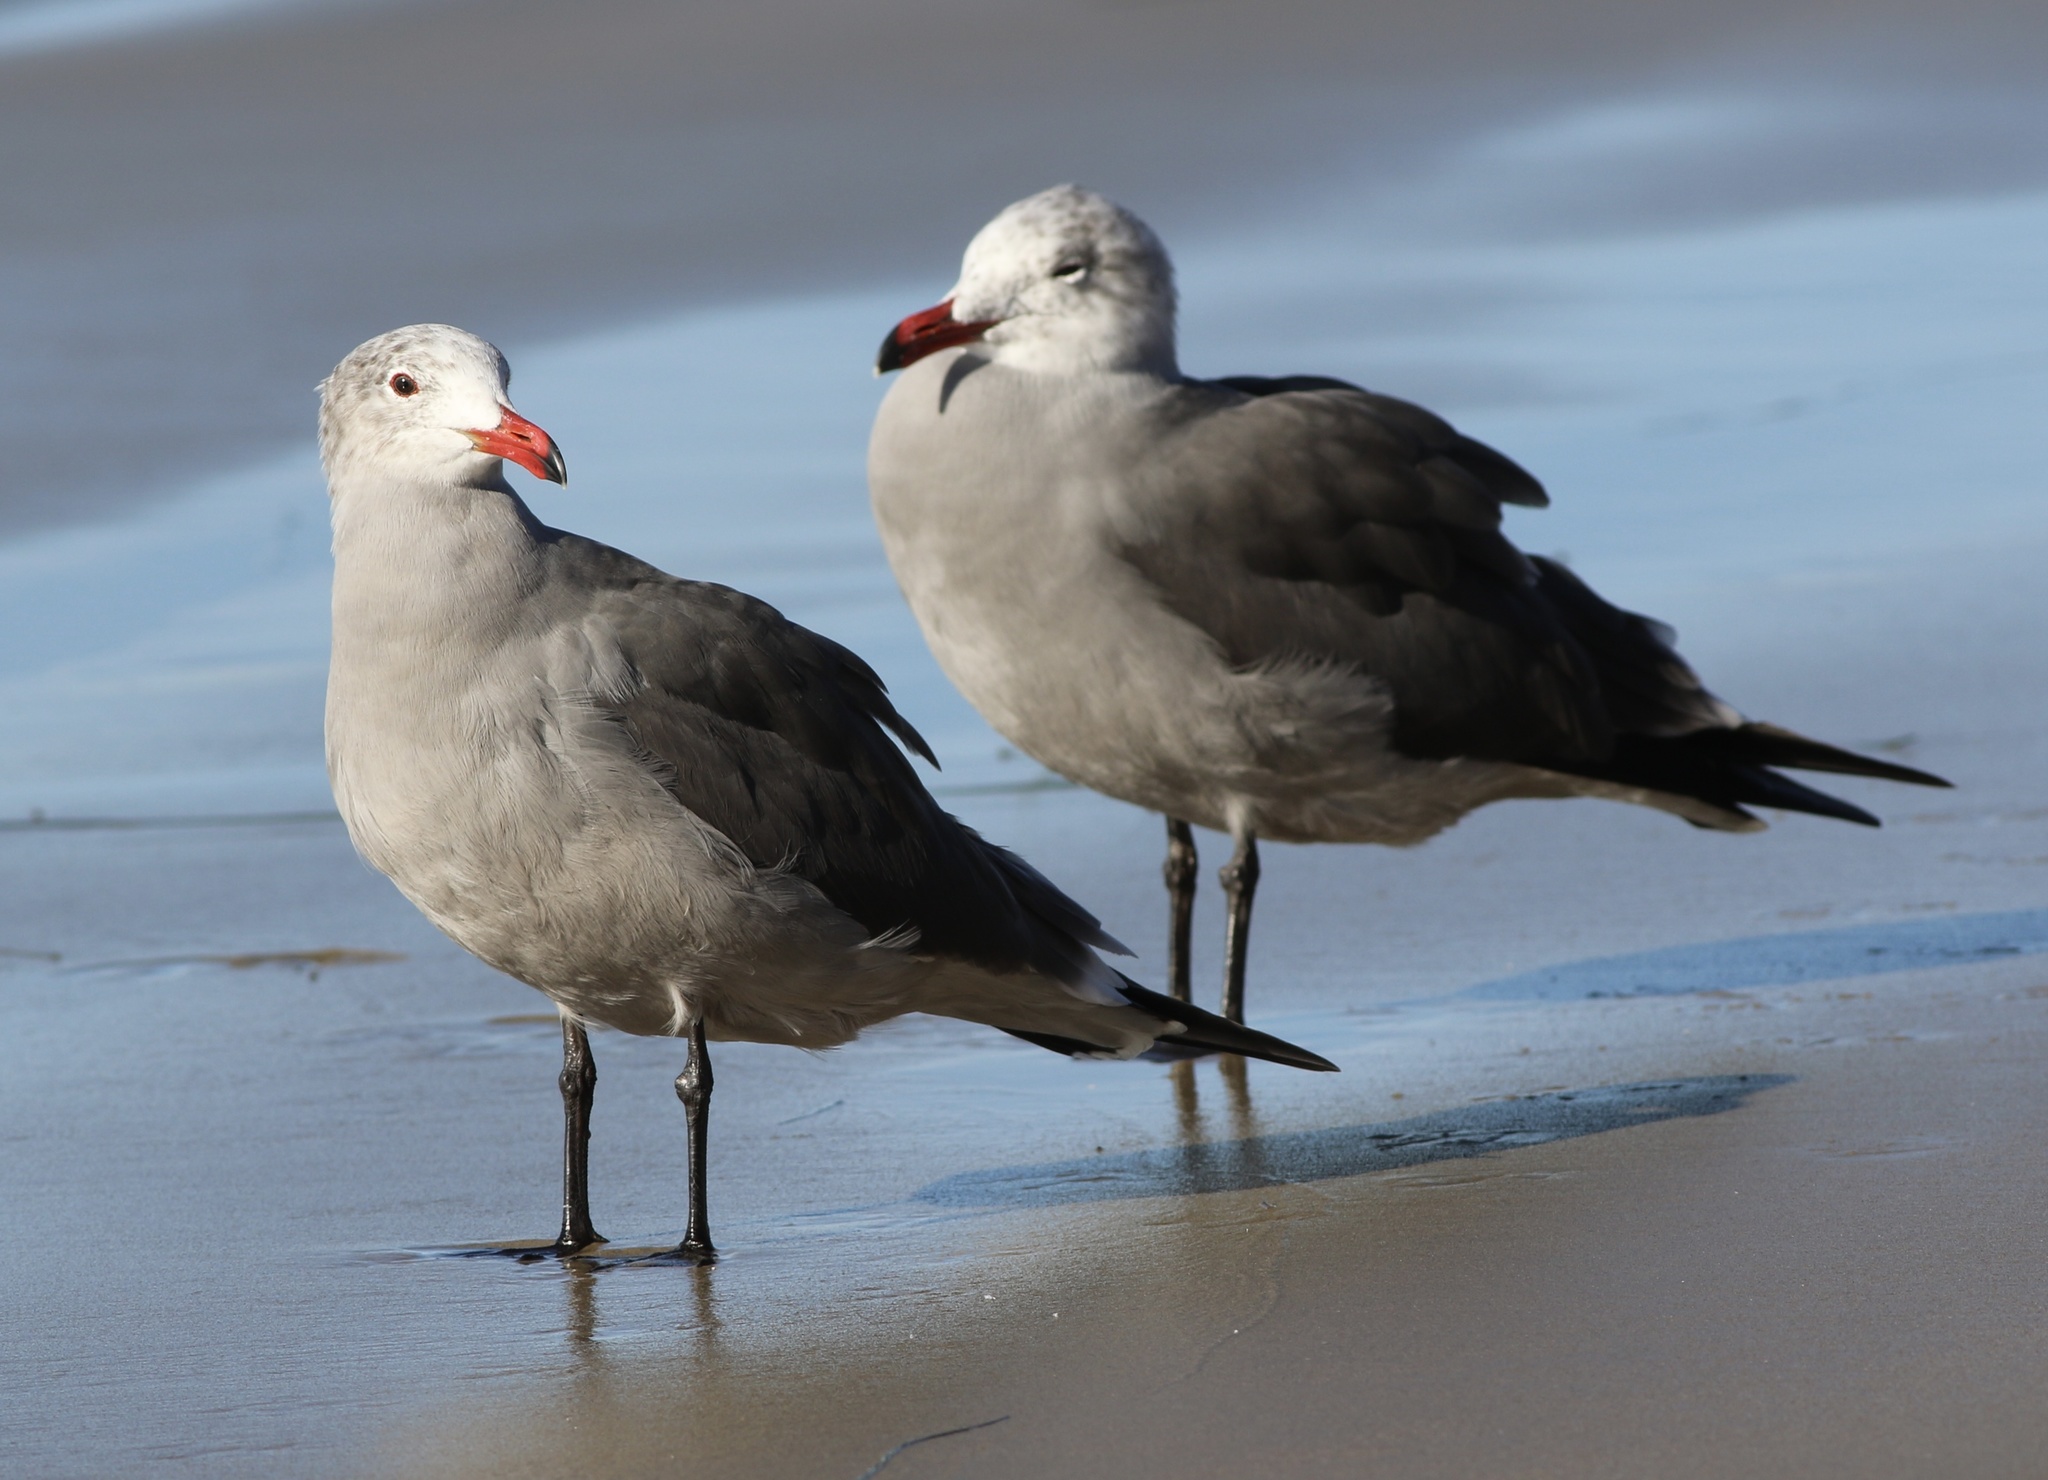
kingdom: Animalia
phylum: Chordata
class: Aves
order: Charadriiformes
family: Laridae
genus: Larus
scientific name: Larus heermanni
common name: Heermann's gull
